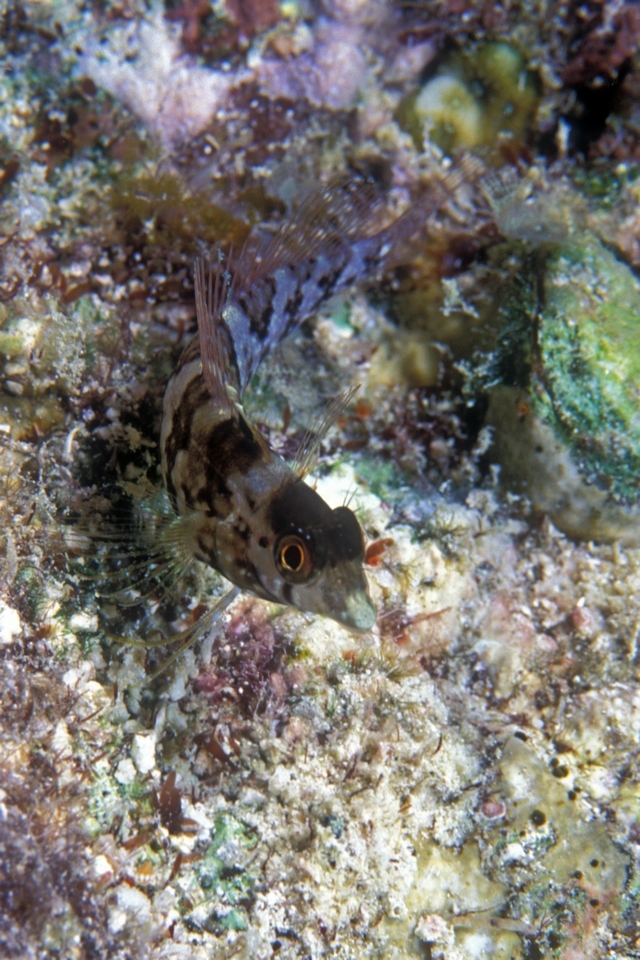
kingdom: Animalia
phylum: Chordata
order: Perciformes
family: Labrisomidae
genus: Malacoctenus
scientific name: Malacoctenus boehlkei
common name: Diamond blenny
